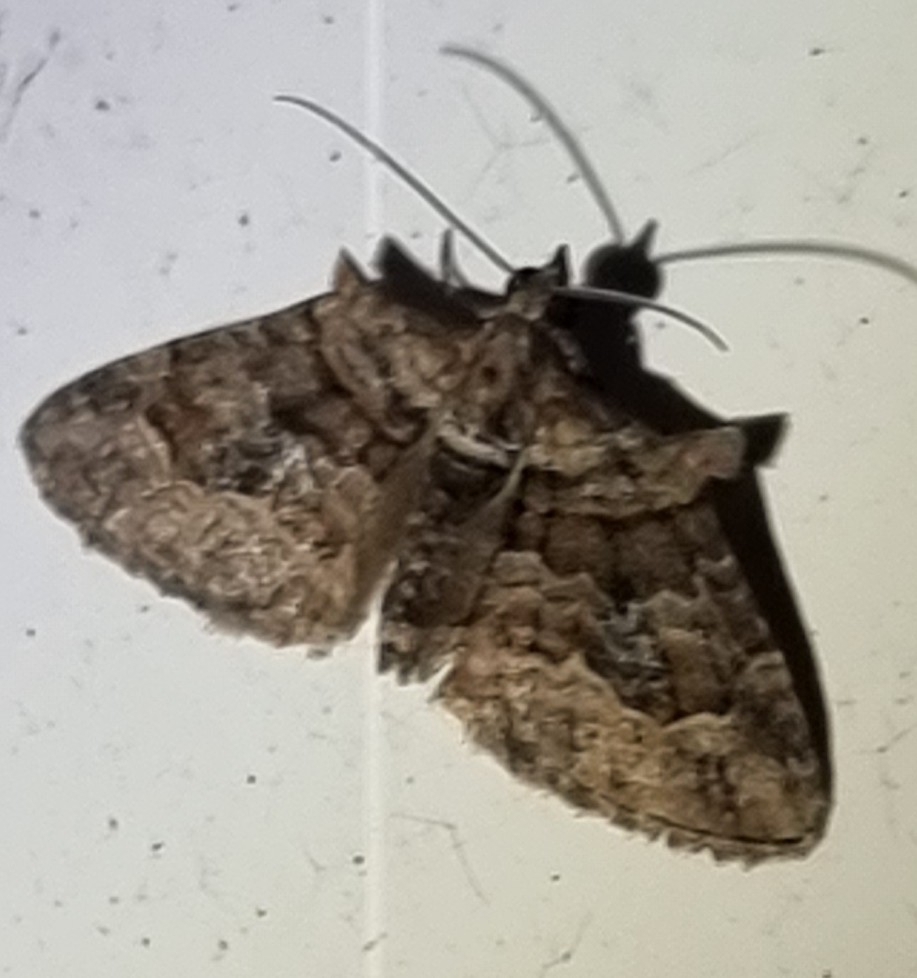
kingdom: Animalia
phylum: Arthropoda
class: Insecta
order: Lepidoptera
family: Geometridae
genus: Phrissogonus
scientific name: Phrissogonus laticostata
